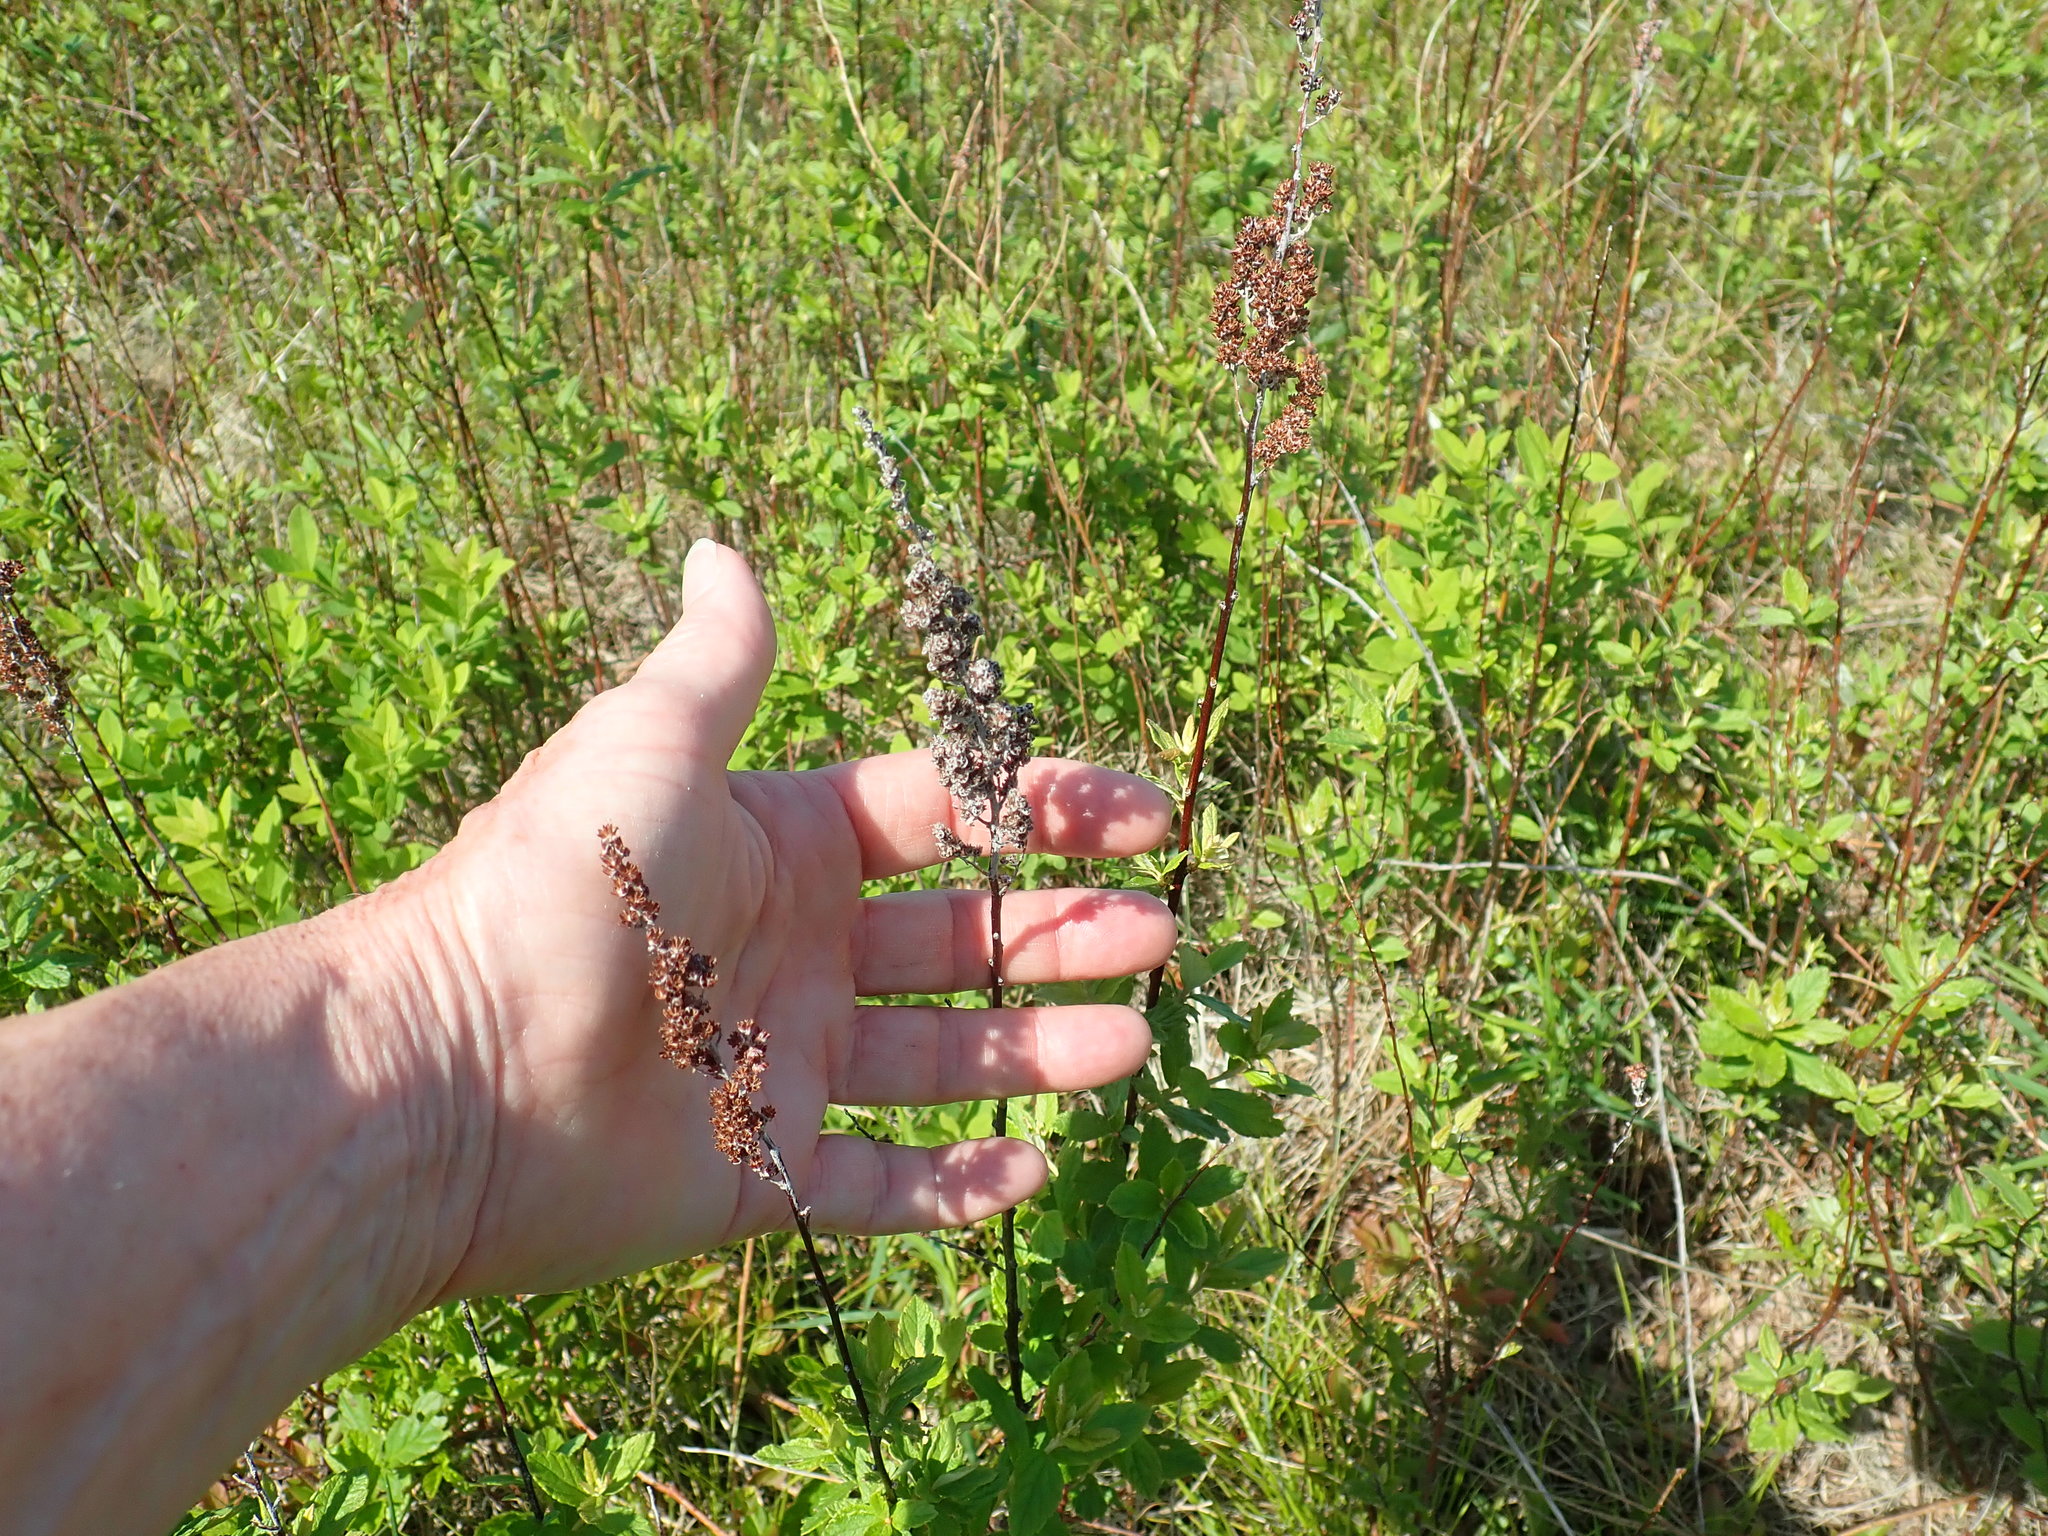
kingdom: Plantae
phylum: Tracheophyta
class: Magnoliopsida
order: Rosales
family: Rosaceae
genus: Spiraea
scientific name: Spiraea tomentosa
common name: Hardhack
